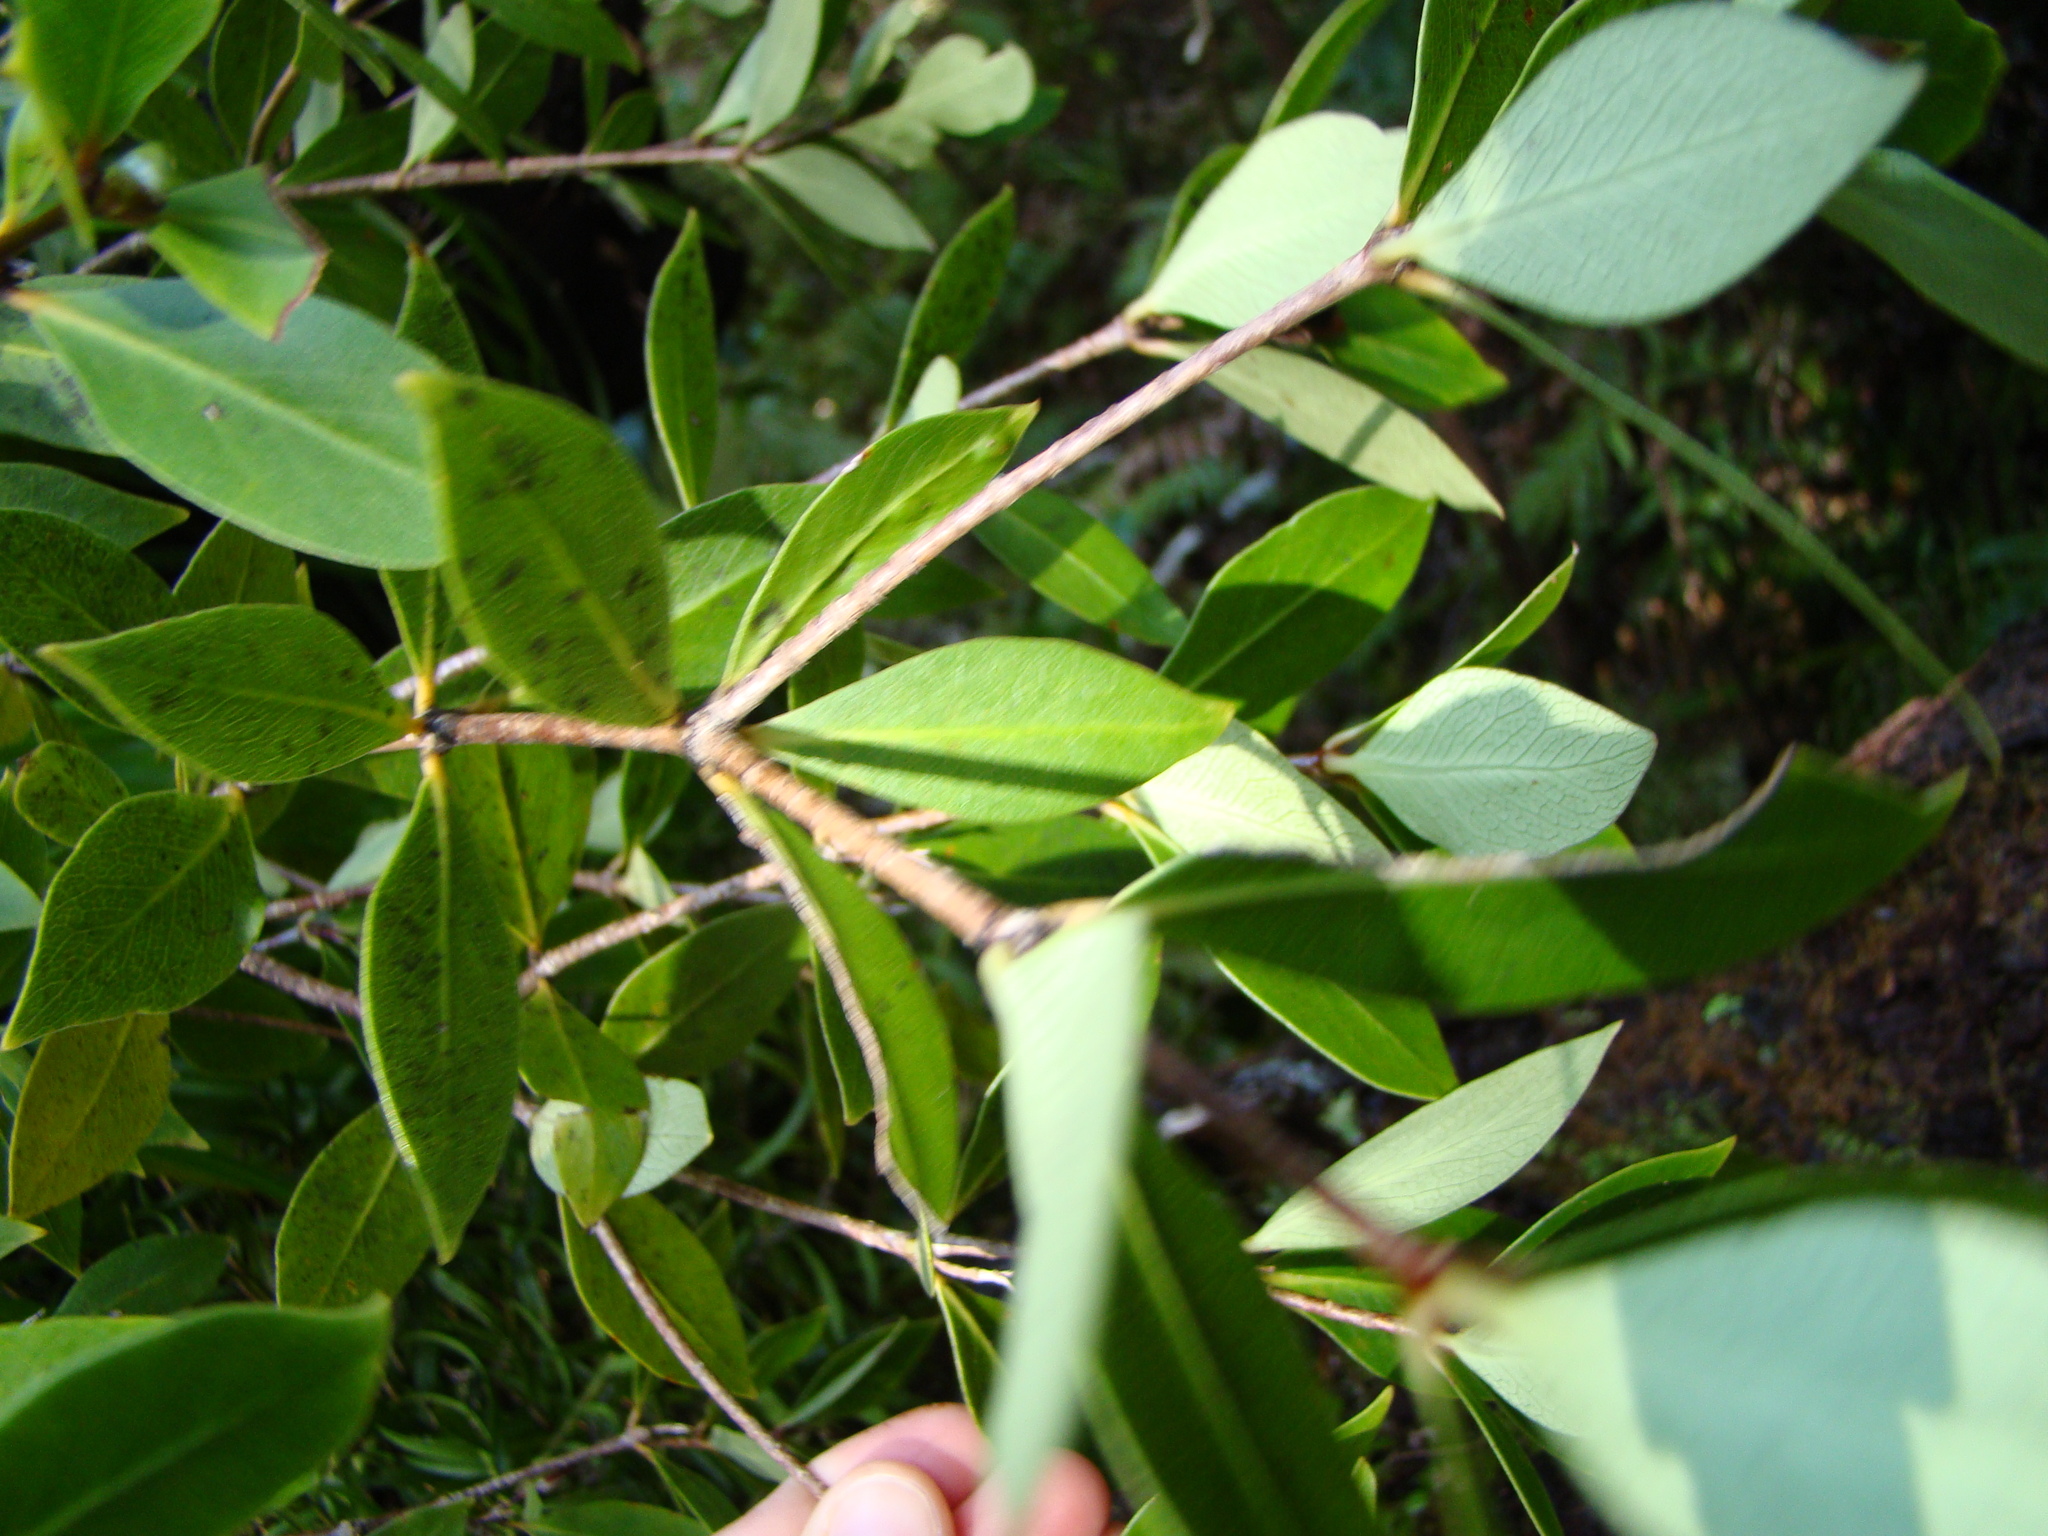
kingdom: Plantae
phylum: Tracheophyta
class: Magnoliopsida
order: Apiales
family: Pittosporaceae
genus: Pittosporum
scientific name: Pittosporum cornifolium
